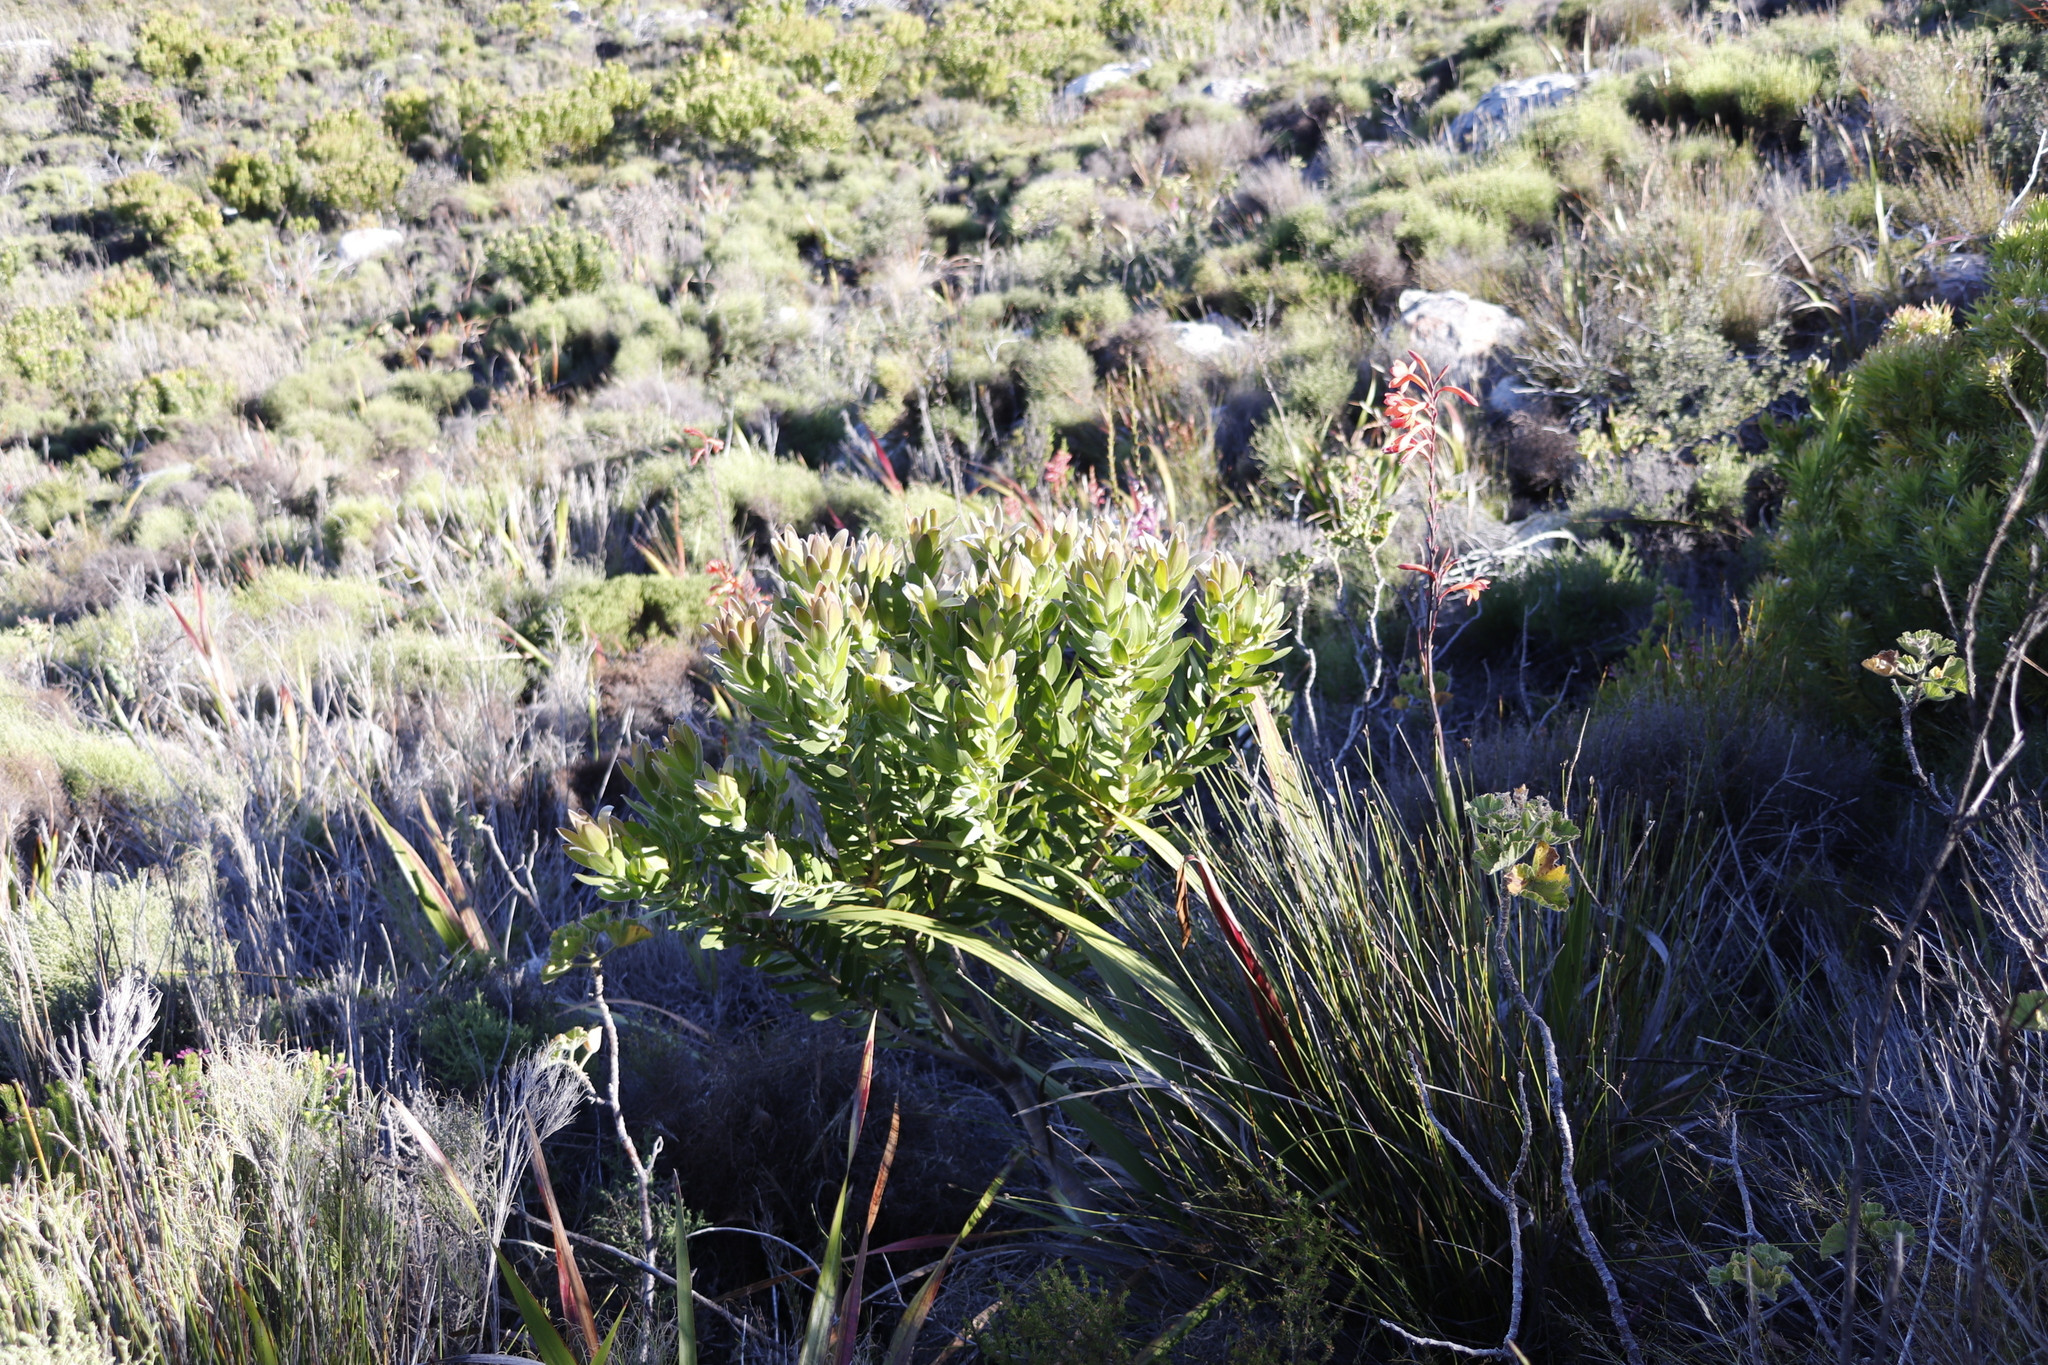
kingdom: Plantae
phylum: Tracheophyta
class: Magnoliopsida
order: Proteales
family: Proteaceae
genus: Leucadendron
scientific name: Leucadendron laureolum
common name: Golden sunshinebush
